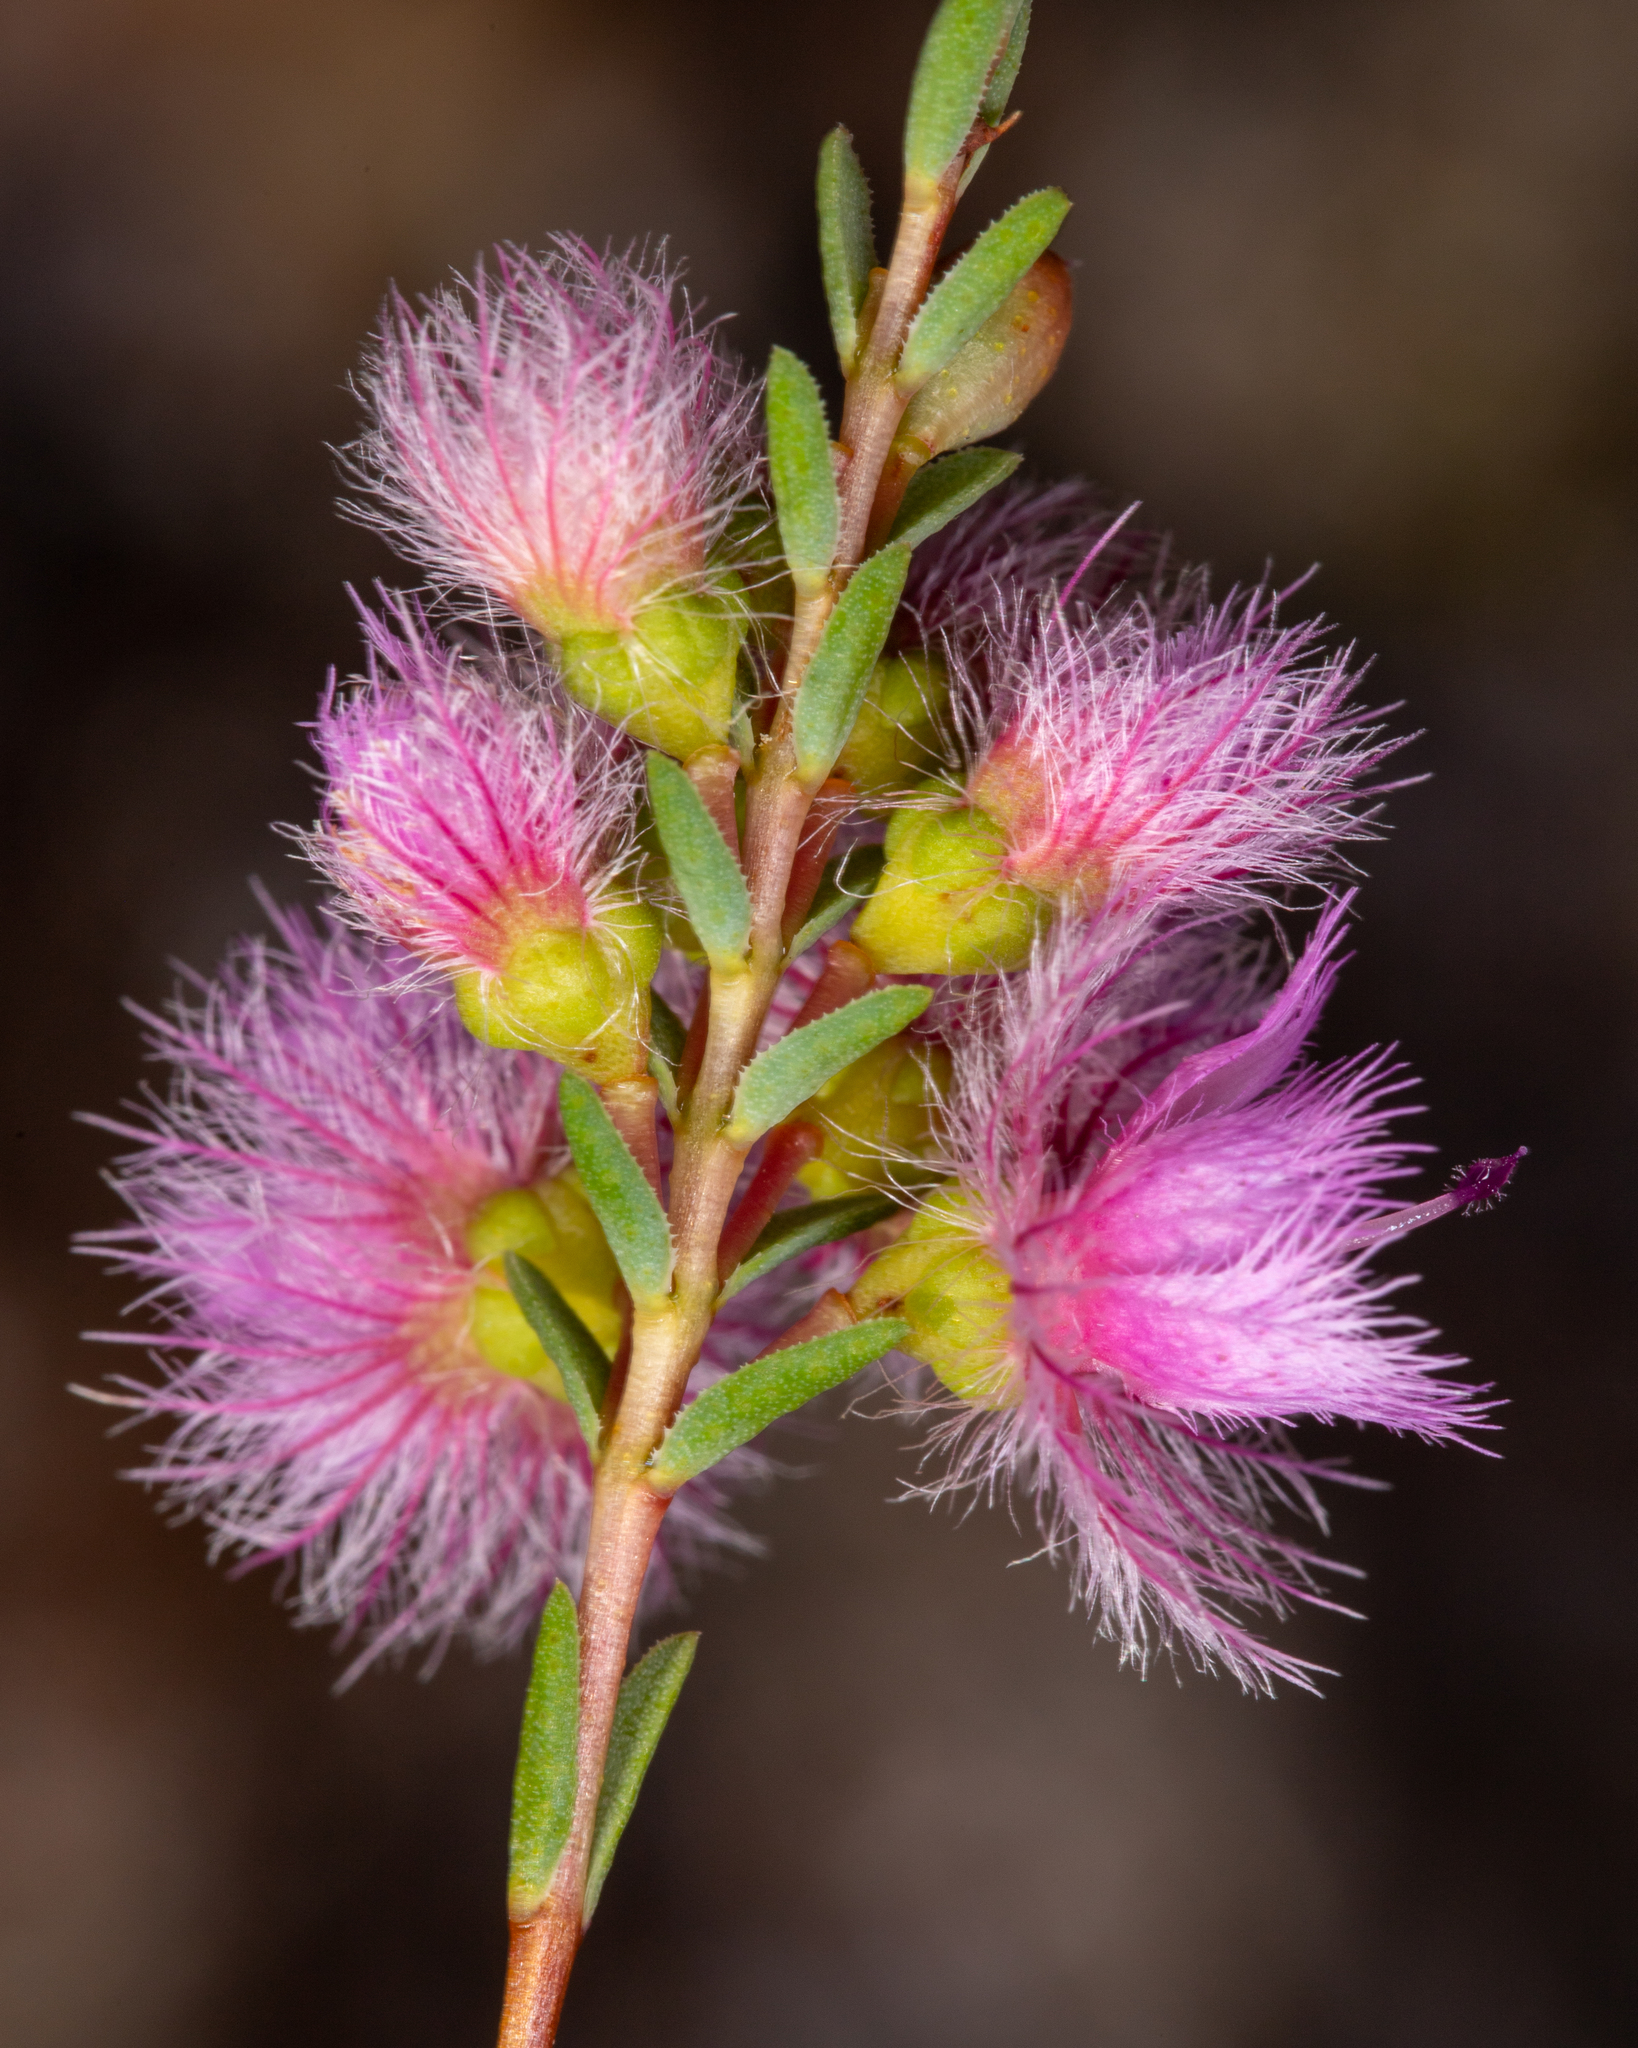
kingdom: Plantae
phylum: Tracheophyta
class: Magnoliopsida
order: Myrtales
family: Myrtaceae
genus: Verticordia
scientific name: Verticordia bifimbriata
